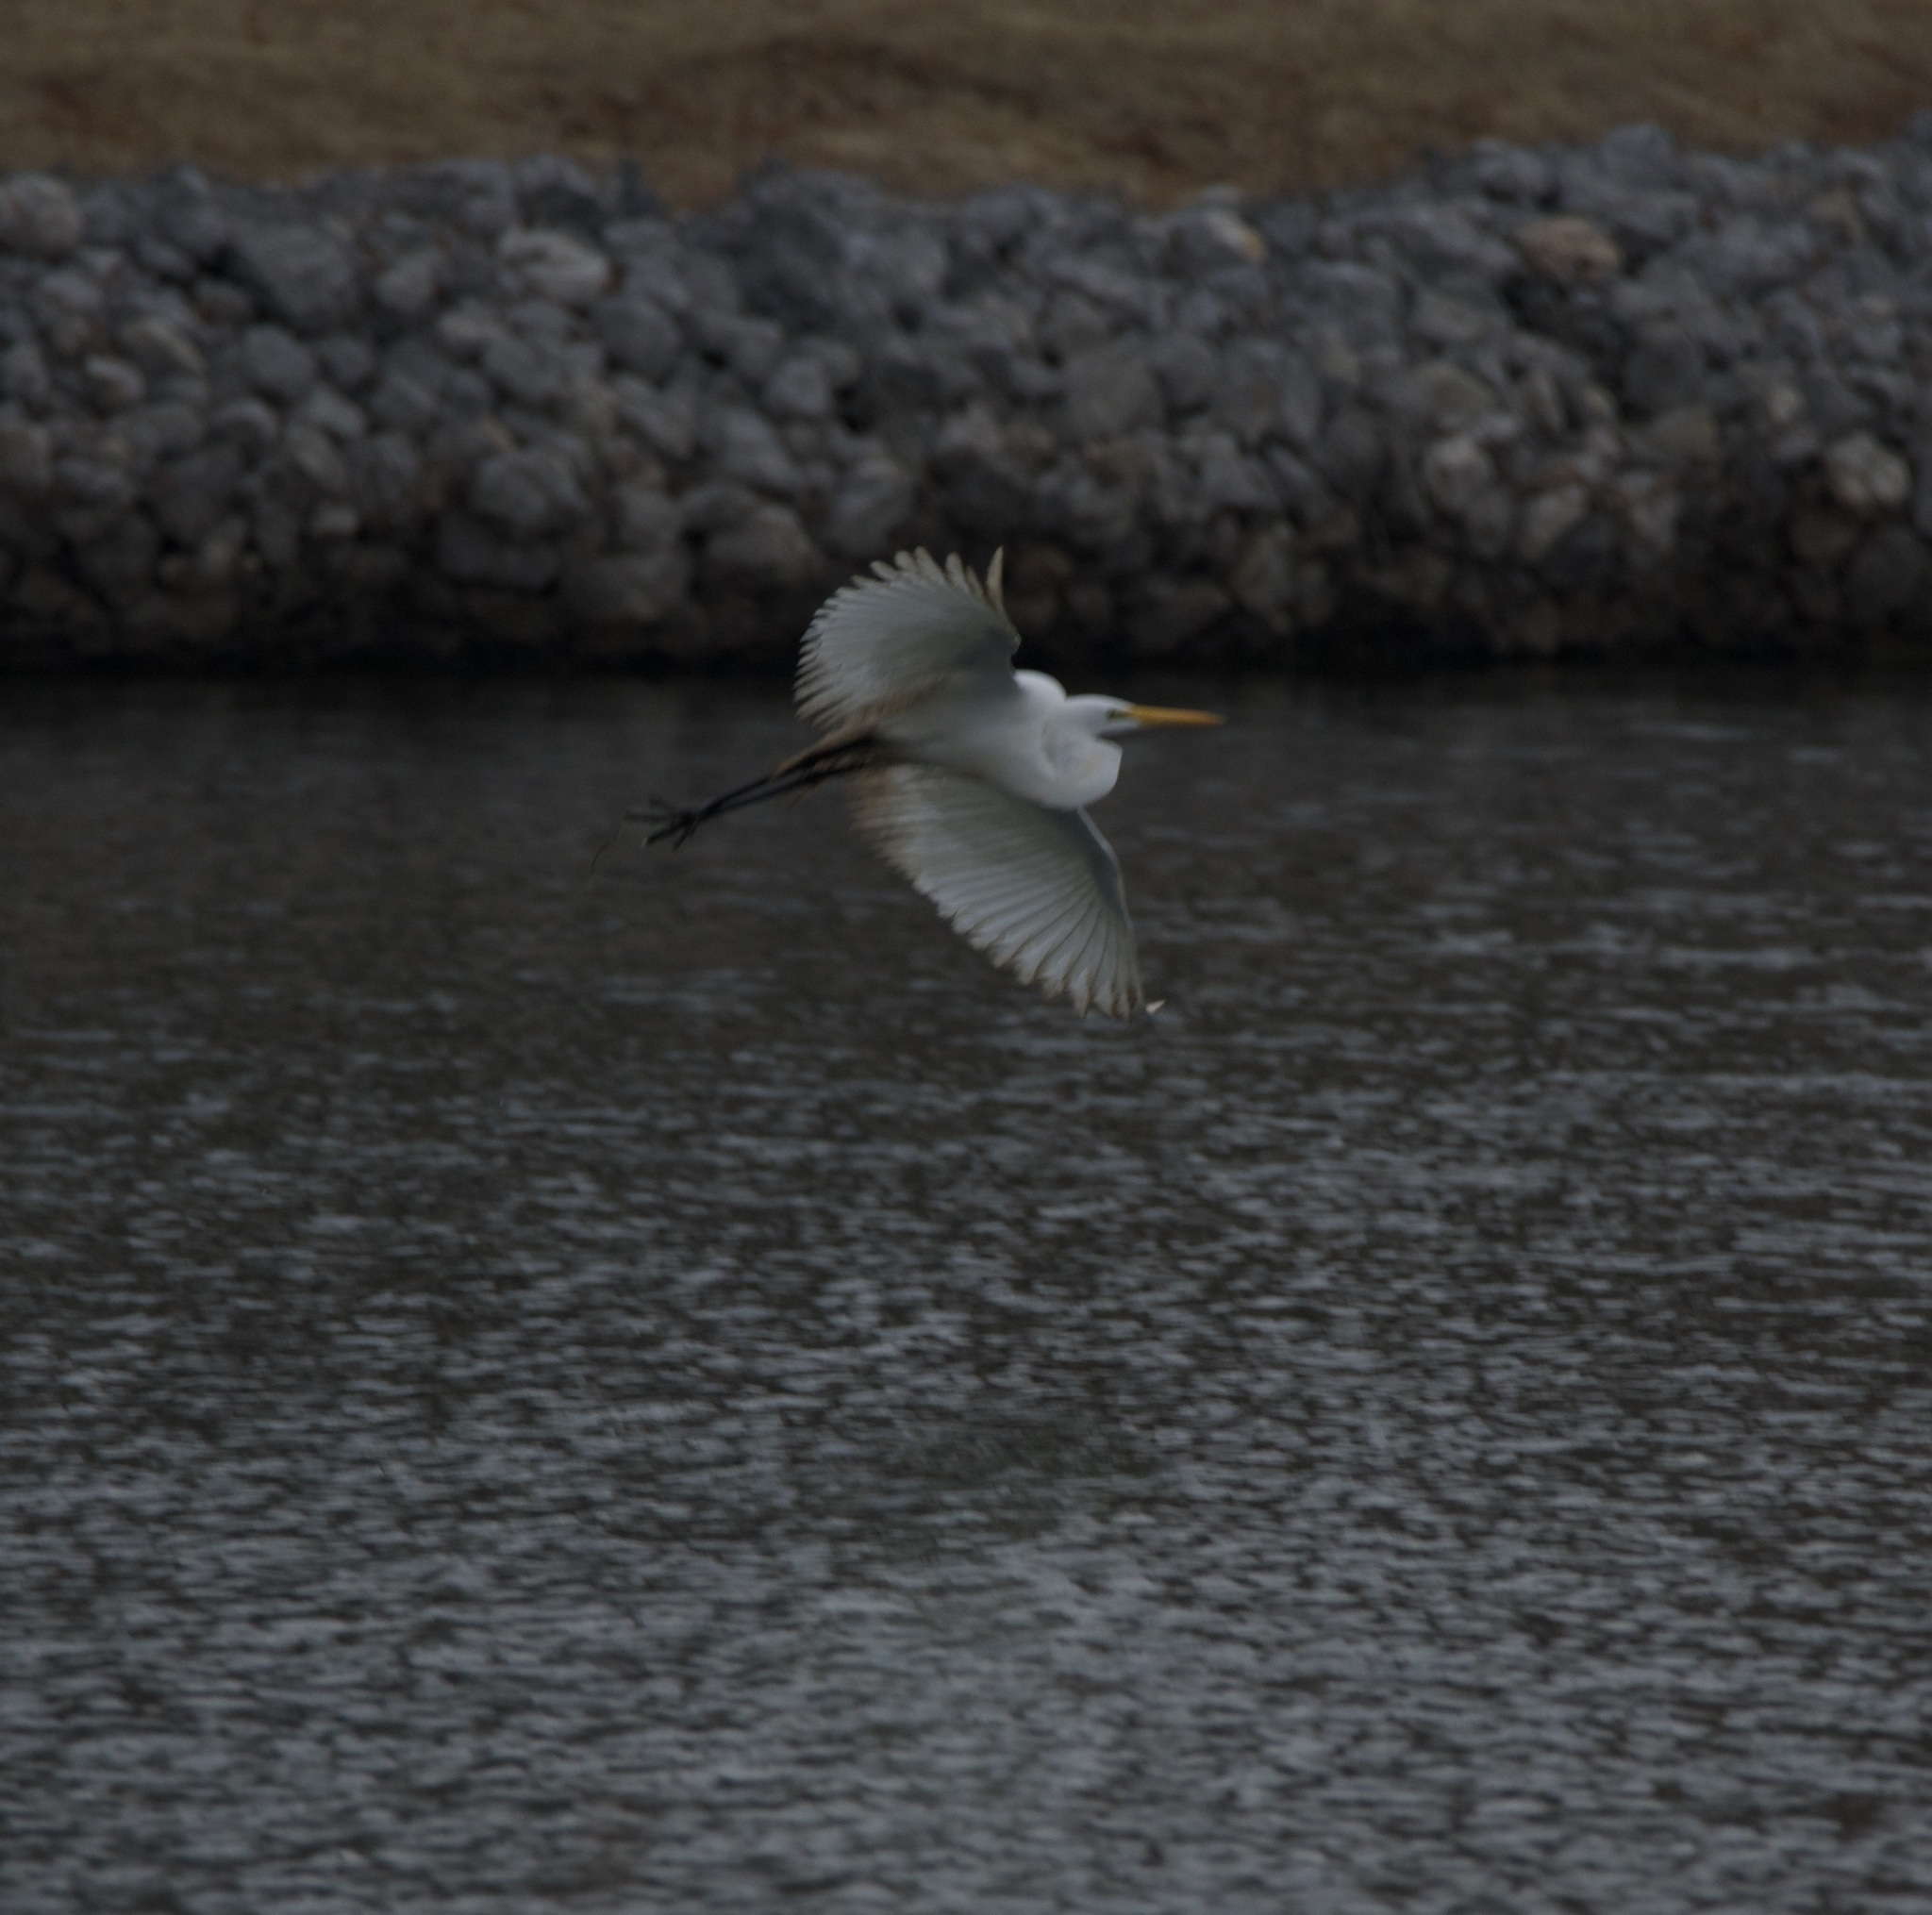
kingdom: Animalia
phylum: Chordata
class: Aves
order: Pelecaniformes
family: Ardeidae
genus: Ardea
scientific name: Ardea alba
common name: Great egret
